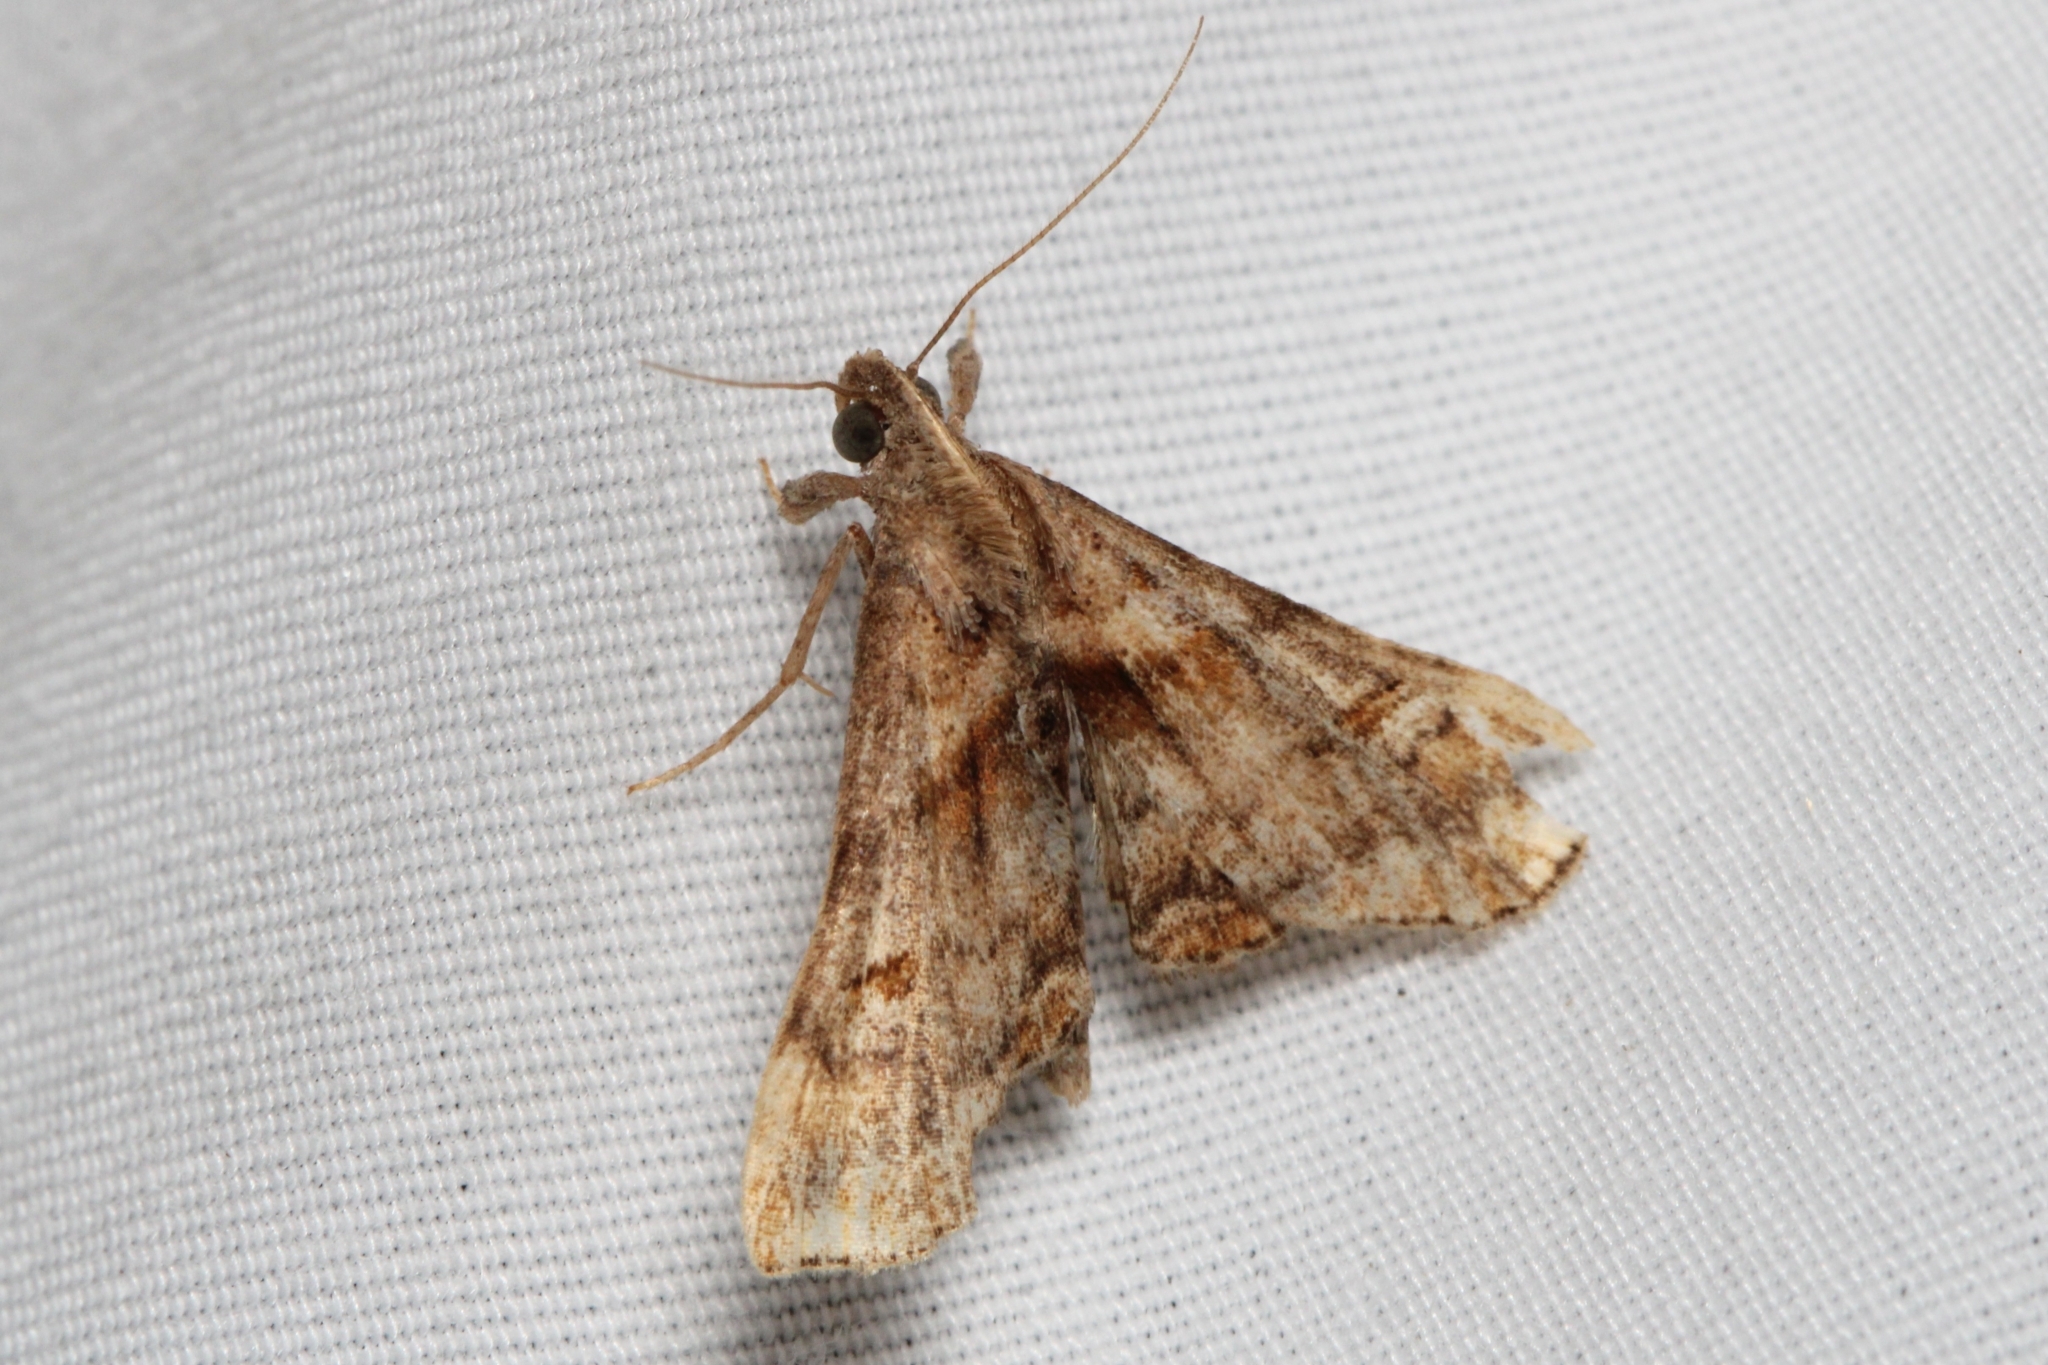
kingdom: Animalia
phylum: Arthropoda
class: Insecta
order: Lepidoptera
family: Erebidae
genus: Palthis
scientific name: Palthis angulalis
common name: Dark-spotted palthis moth
